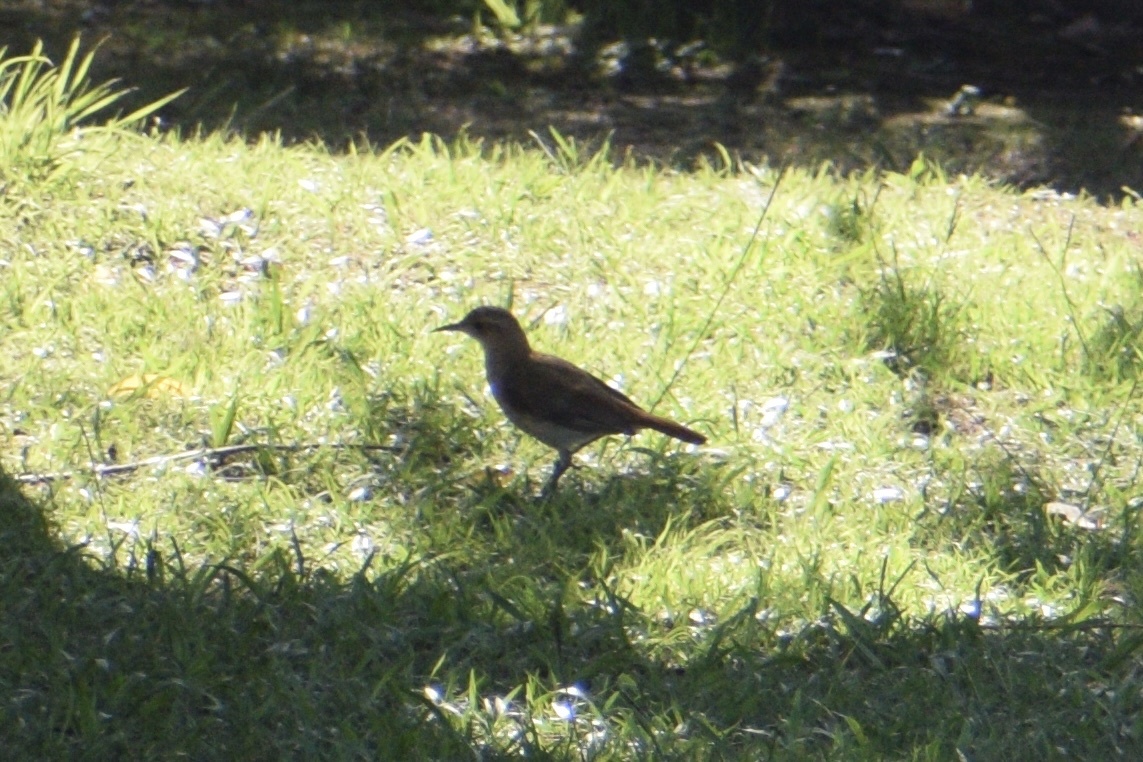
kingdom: Animalia
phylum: Chordata
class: Aves
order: Passeriformes
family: Furnariidae
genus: Furnarius
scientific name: Furnarius rufus
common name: Rufous hornero
